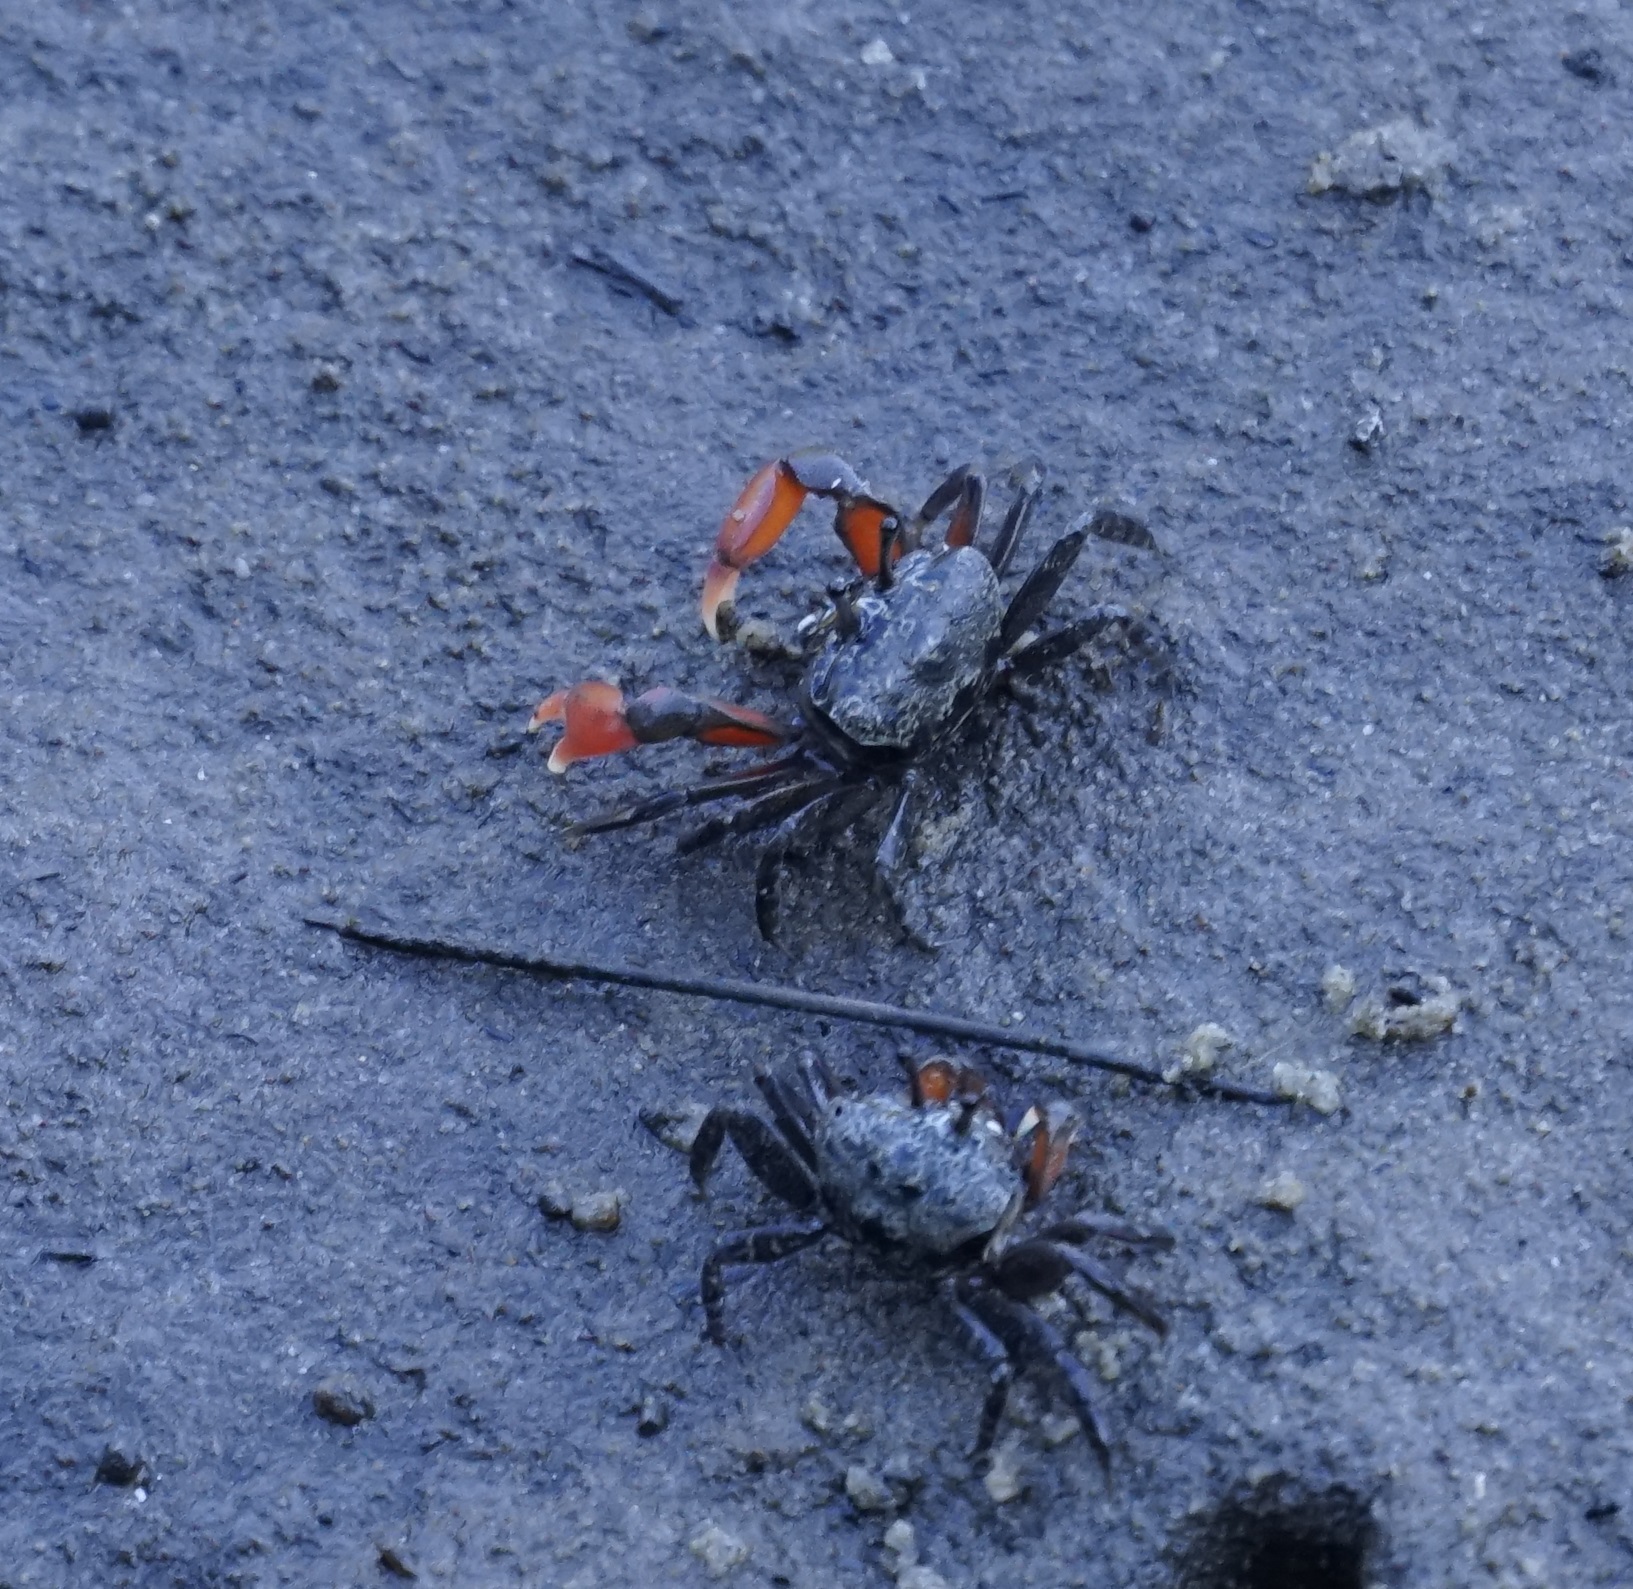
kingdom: Animalia
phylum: Arthropoda
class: Malacostraca
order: Decapoda
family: Heloeciidae
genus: Heloecius
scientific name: Heloecius cordiformis
